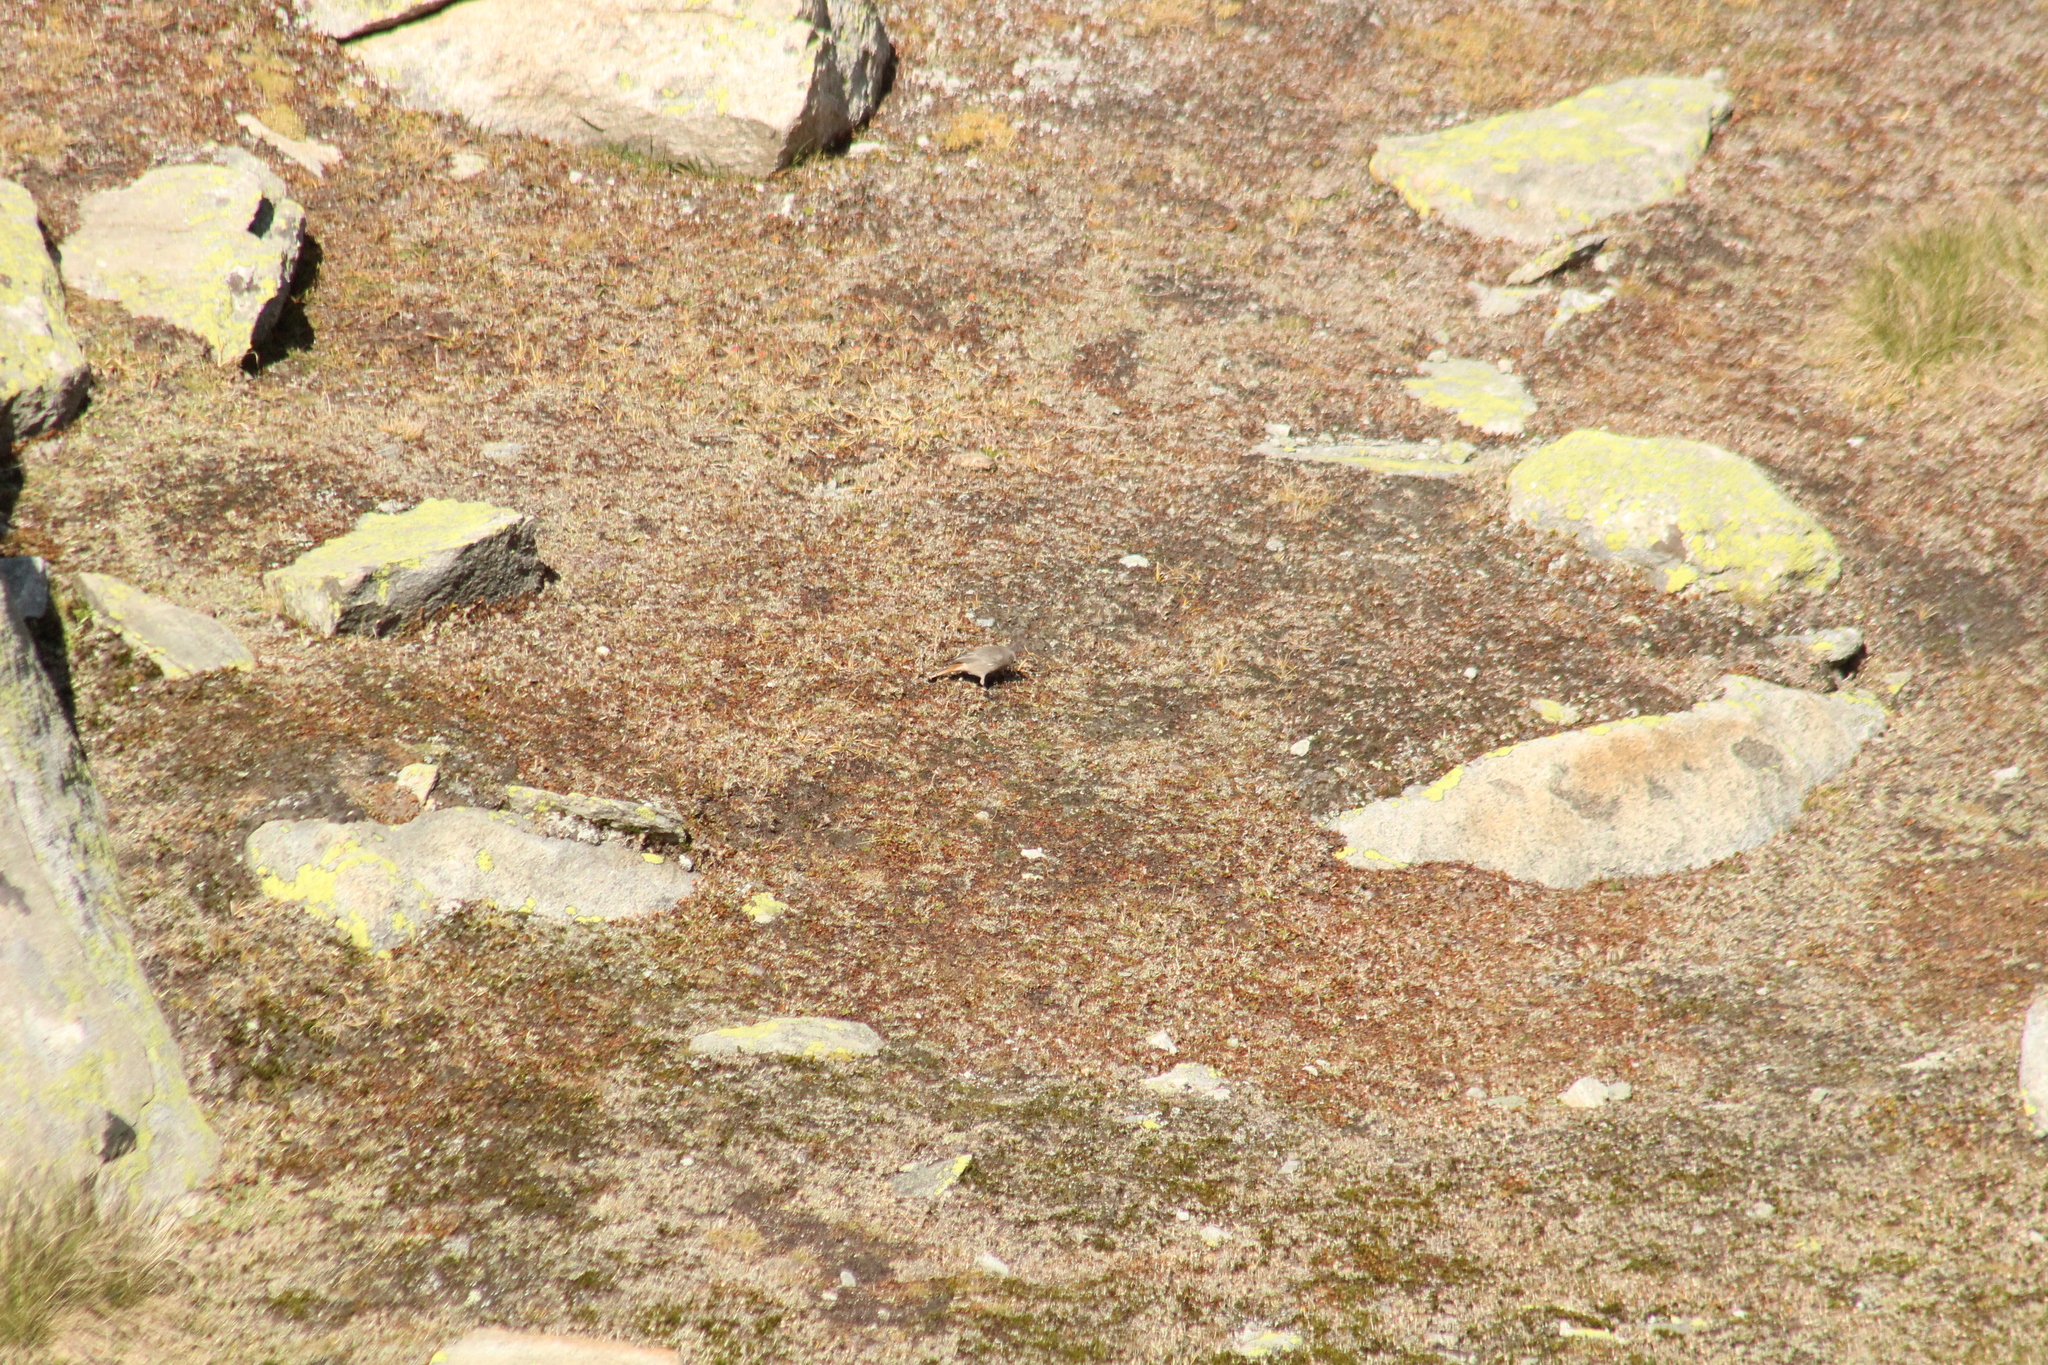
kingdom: Animalia
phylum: Chordata
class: Aves
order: Passeriformes
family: Muscicapidae
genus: Phoenicurus
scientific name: Phoenicurus ochruros
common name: Black redstart
